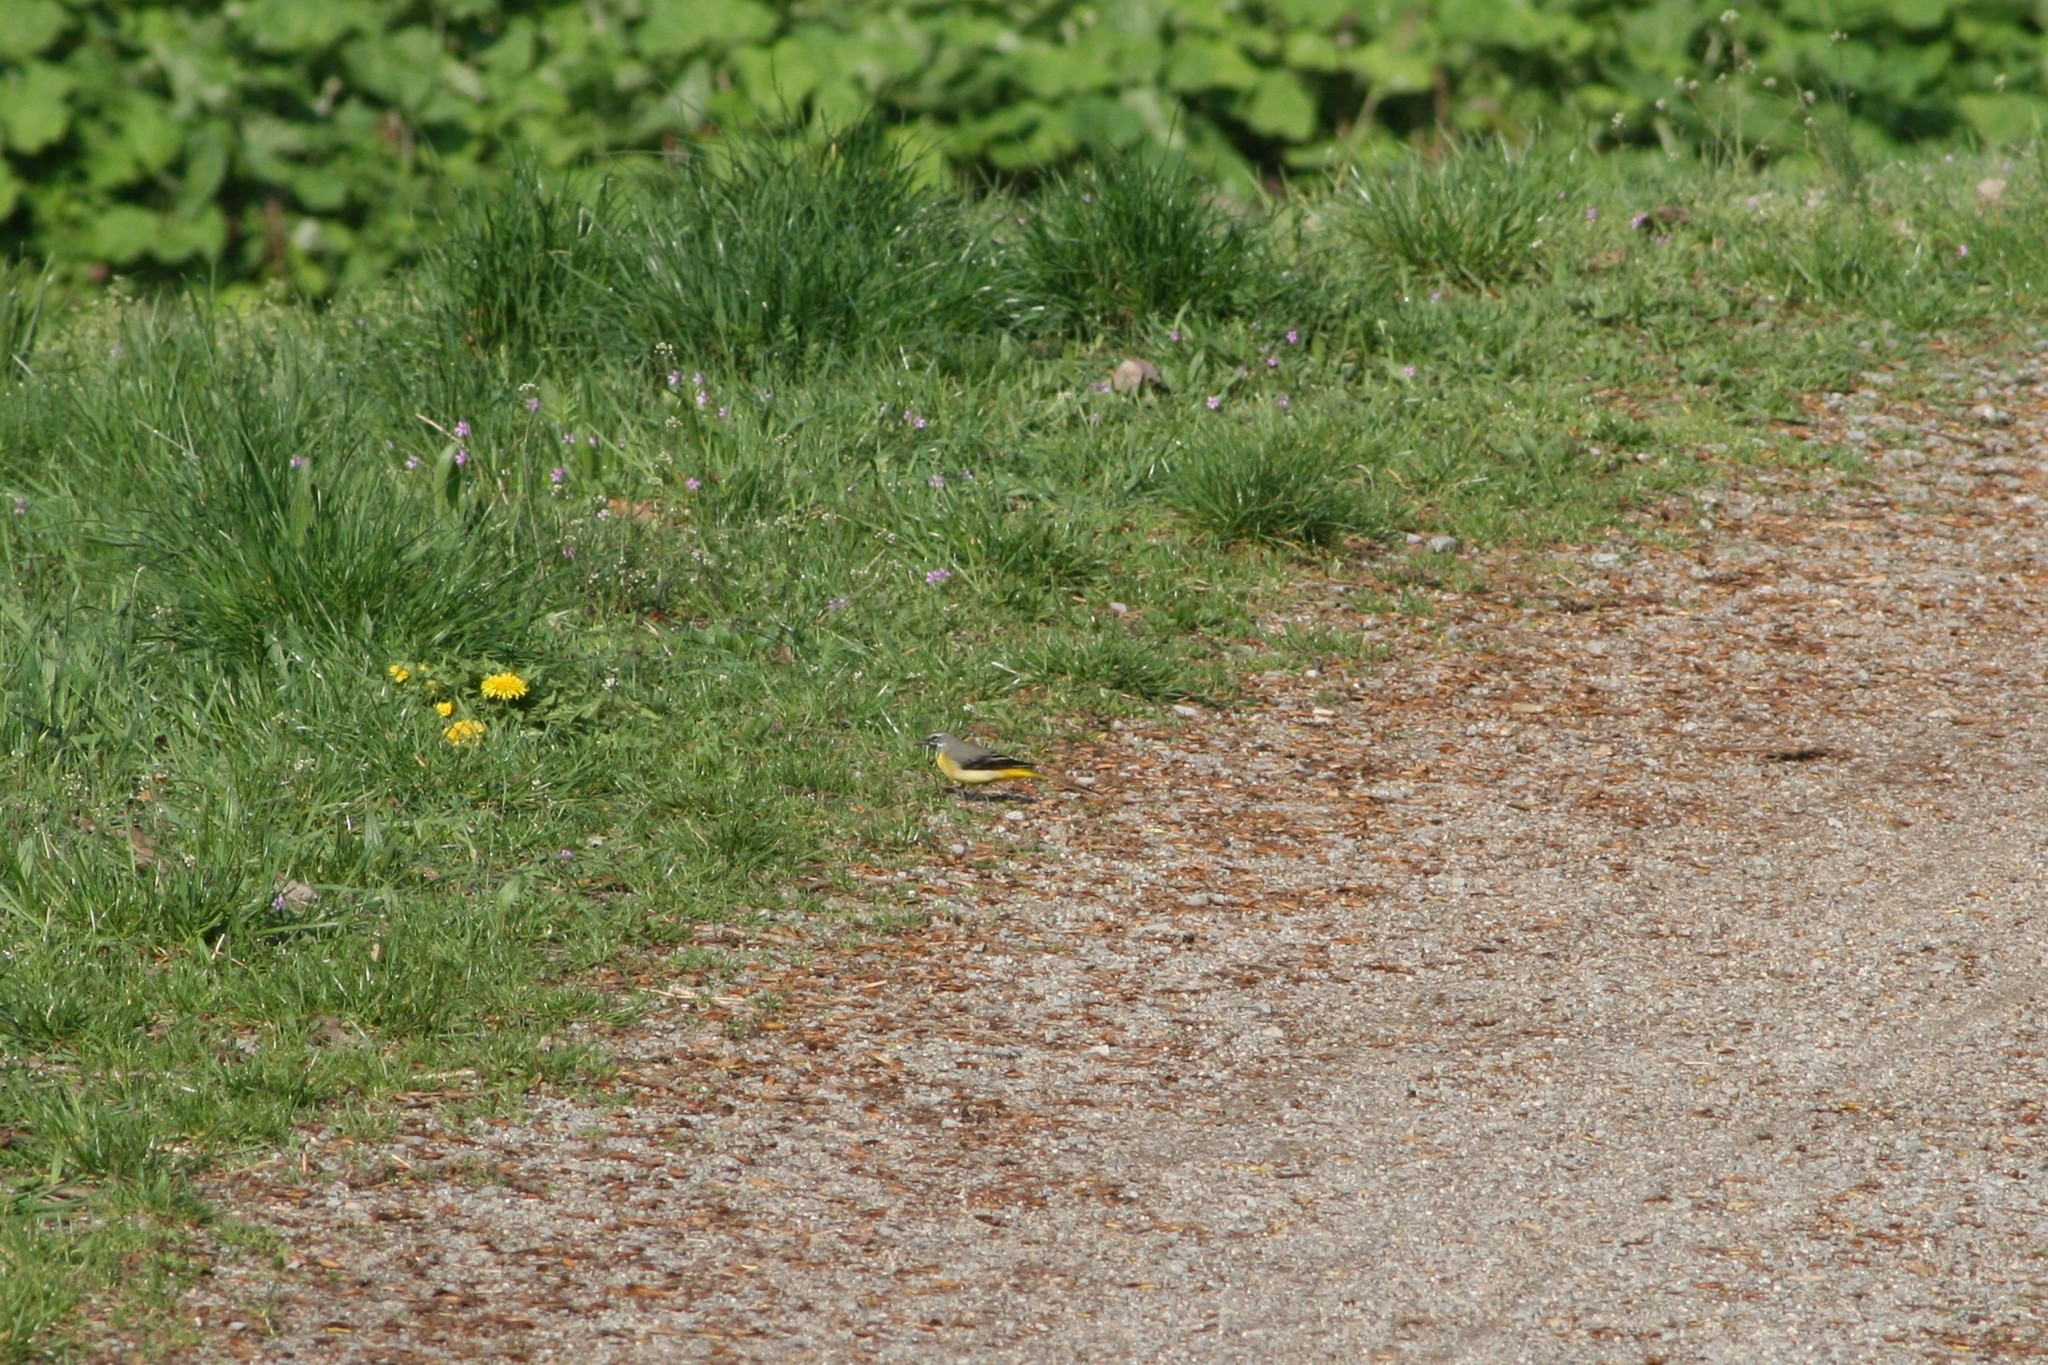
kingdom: Animalia
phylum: Chordata
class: Aves
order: Passeriformes
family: Motacillidae
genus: Motacilla
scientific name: Motacilla cinerea
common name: Grey wagtail
